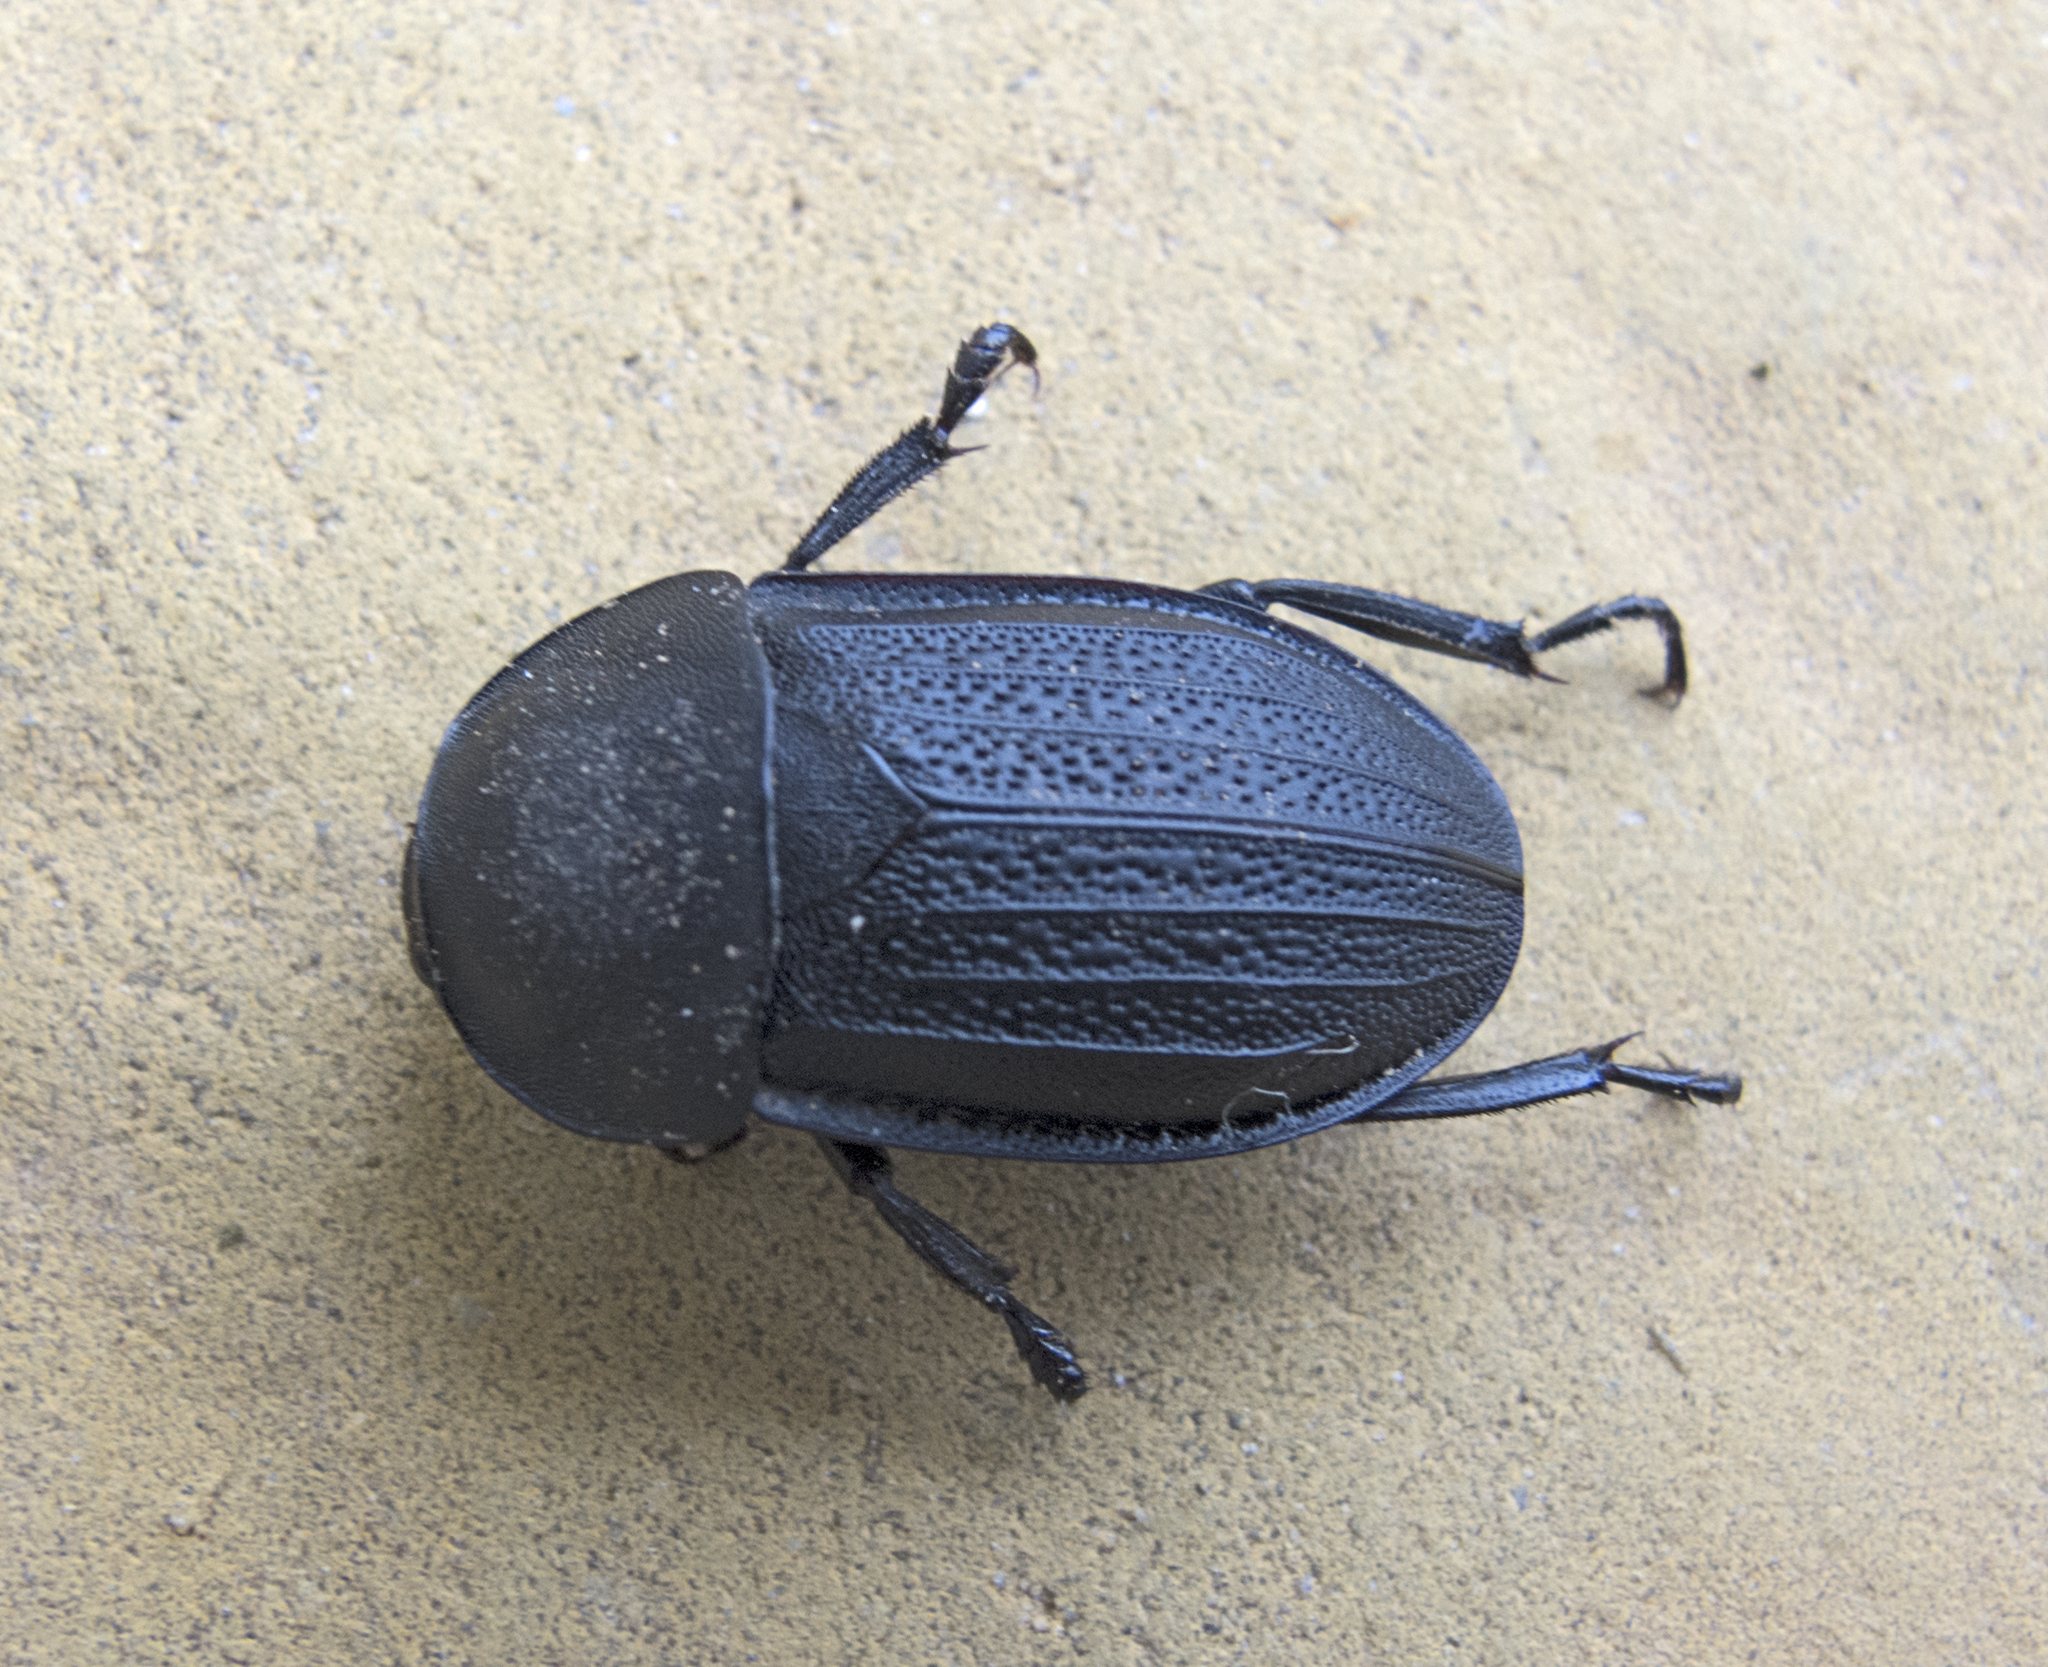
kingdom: Animalia
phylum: Arthropoda
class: Insecta
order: Coleoptera
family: Staphylinidae
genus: Silpha
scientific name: Silpha obscura
